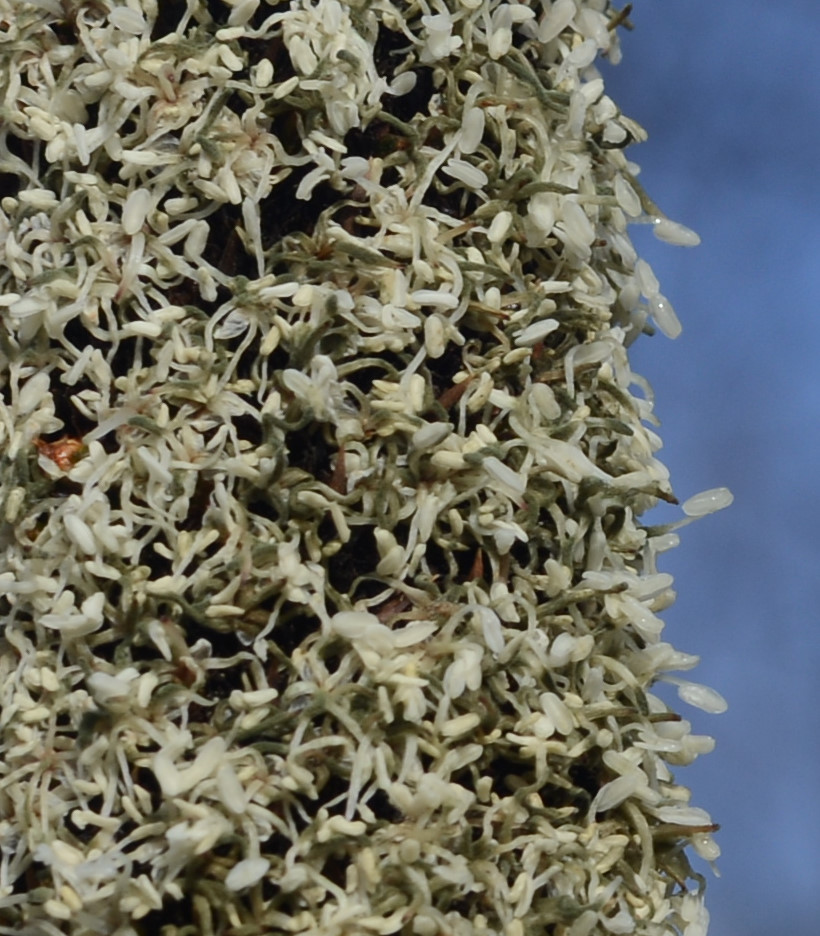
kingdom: Plantae
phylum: Tracheophyta
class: Liliopsida
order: Asparagales
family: Asphodelaceae
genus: Xanthorrhoea
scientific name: Xanthorrhoea concava
